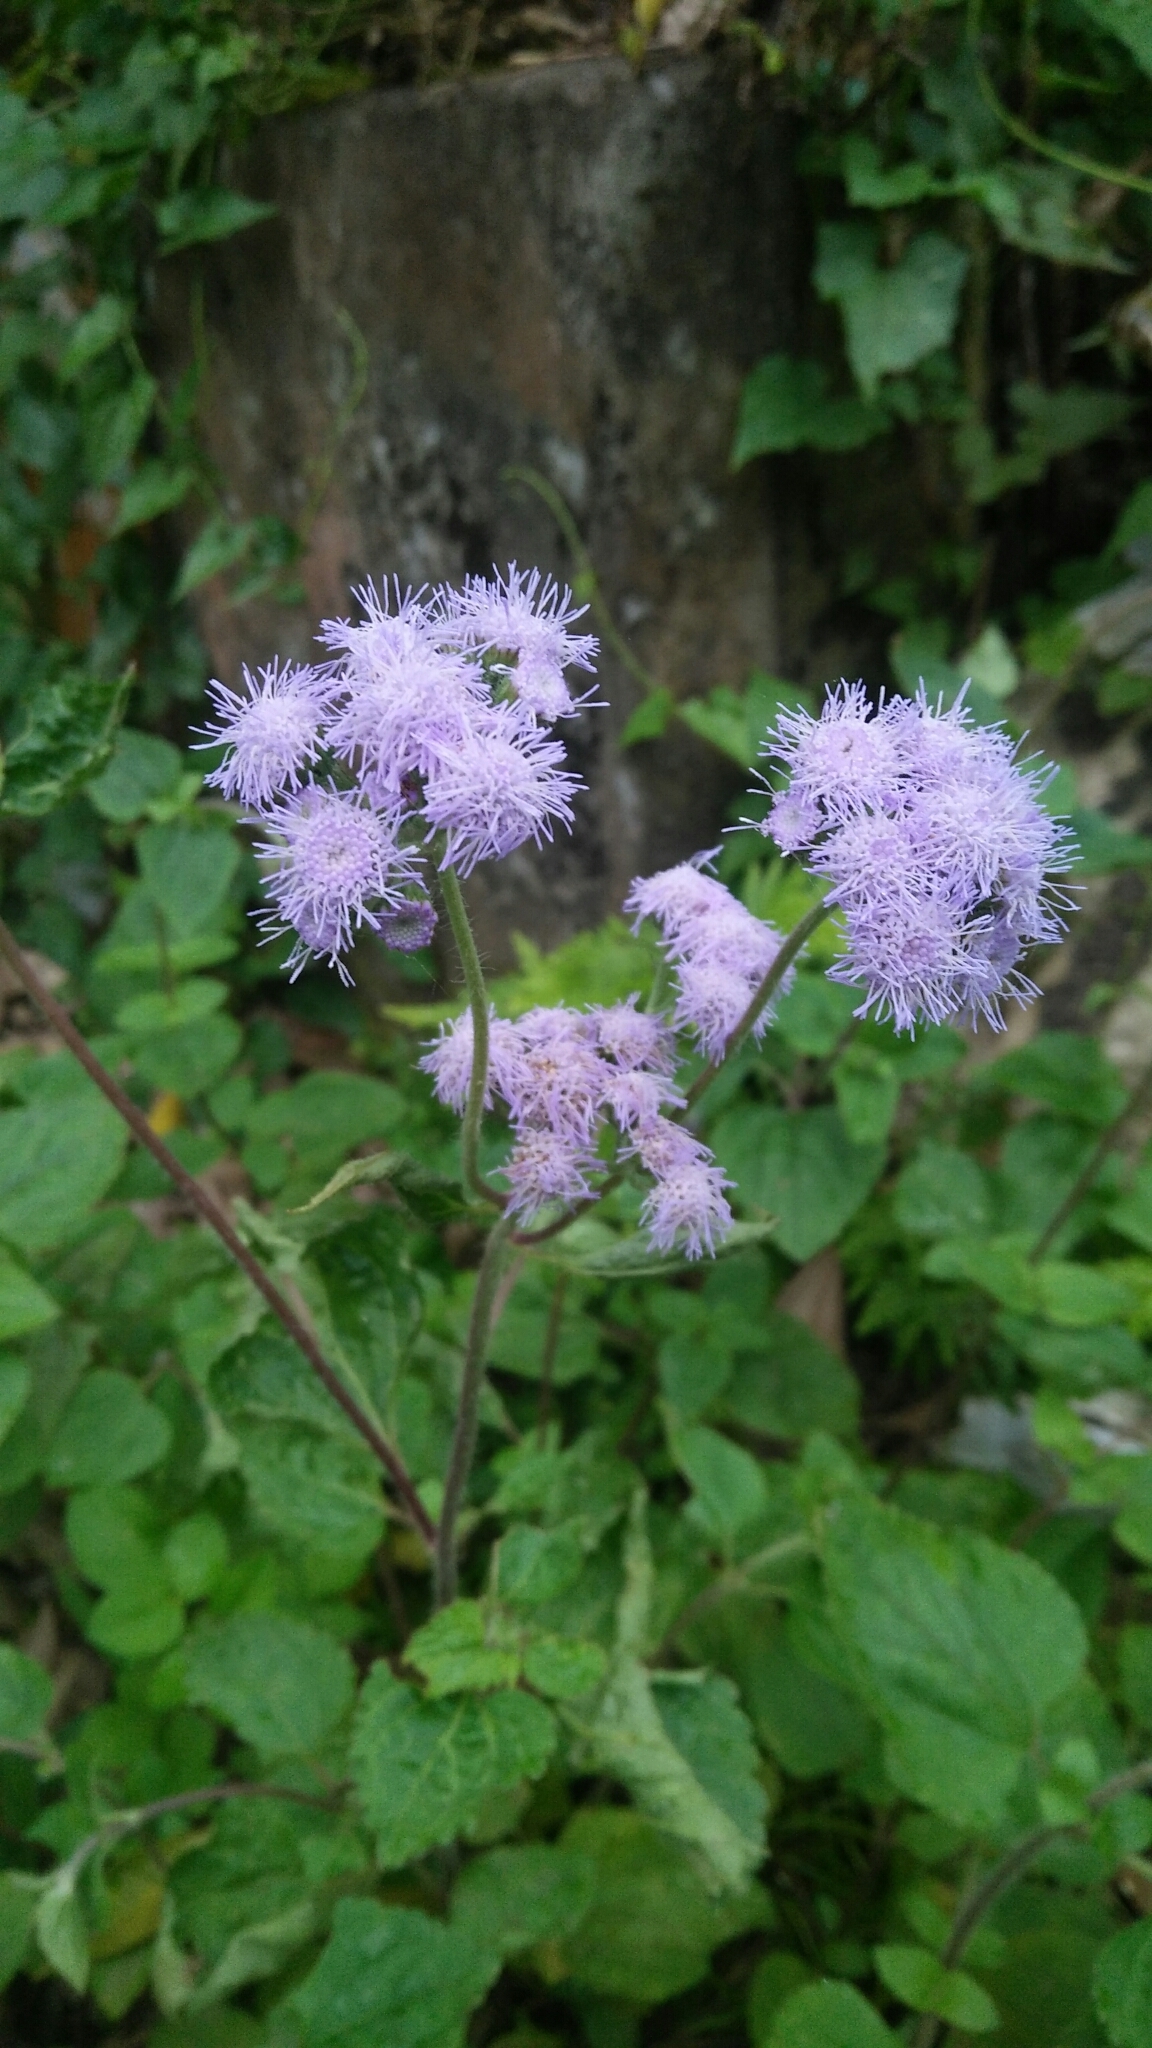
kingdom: Plantae
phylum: Tracheophyta
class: Magnoliopsida
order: Asterales
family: Asteraceae
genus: Ageratum
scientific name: Ageratum houstonianum
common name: Bluemink
